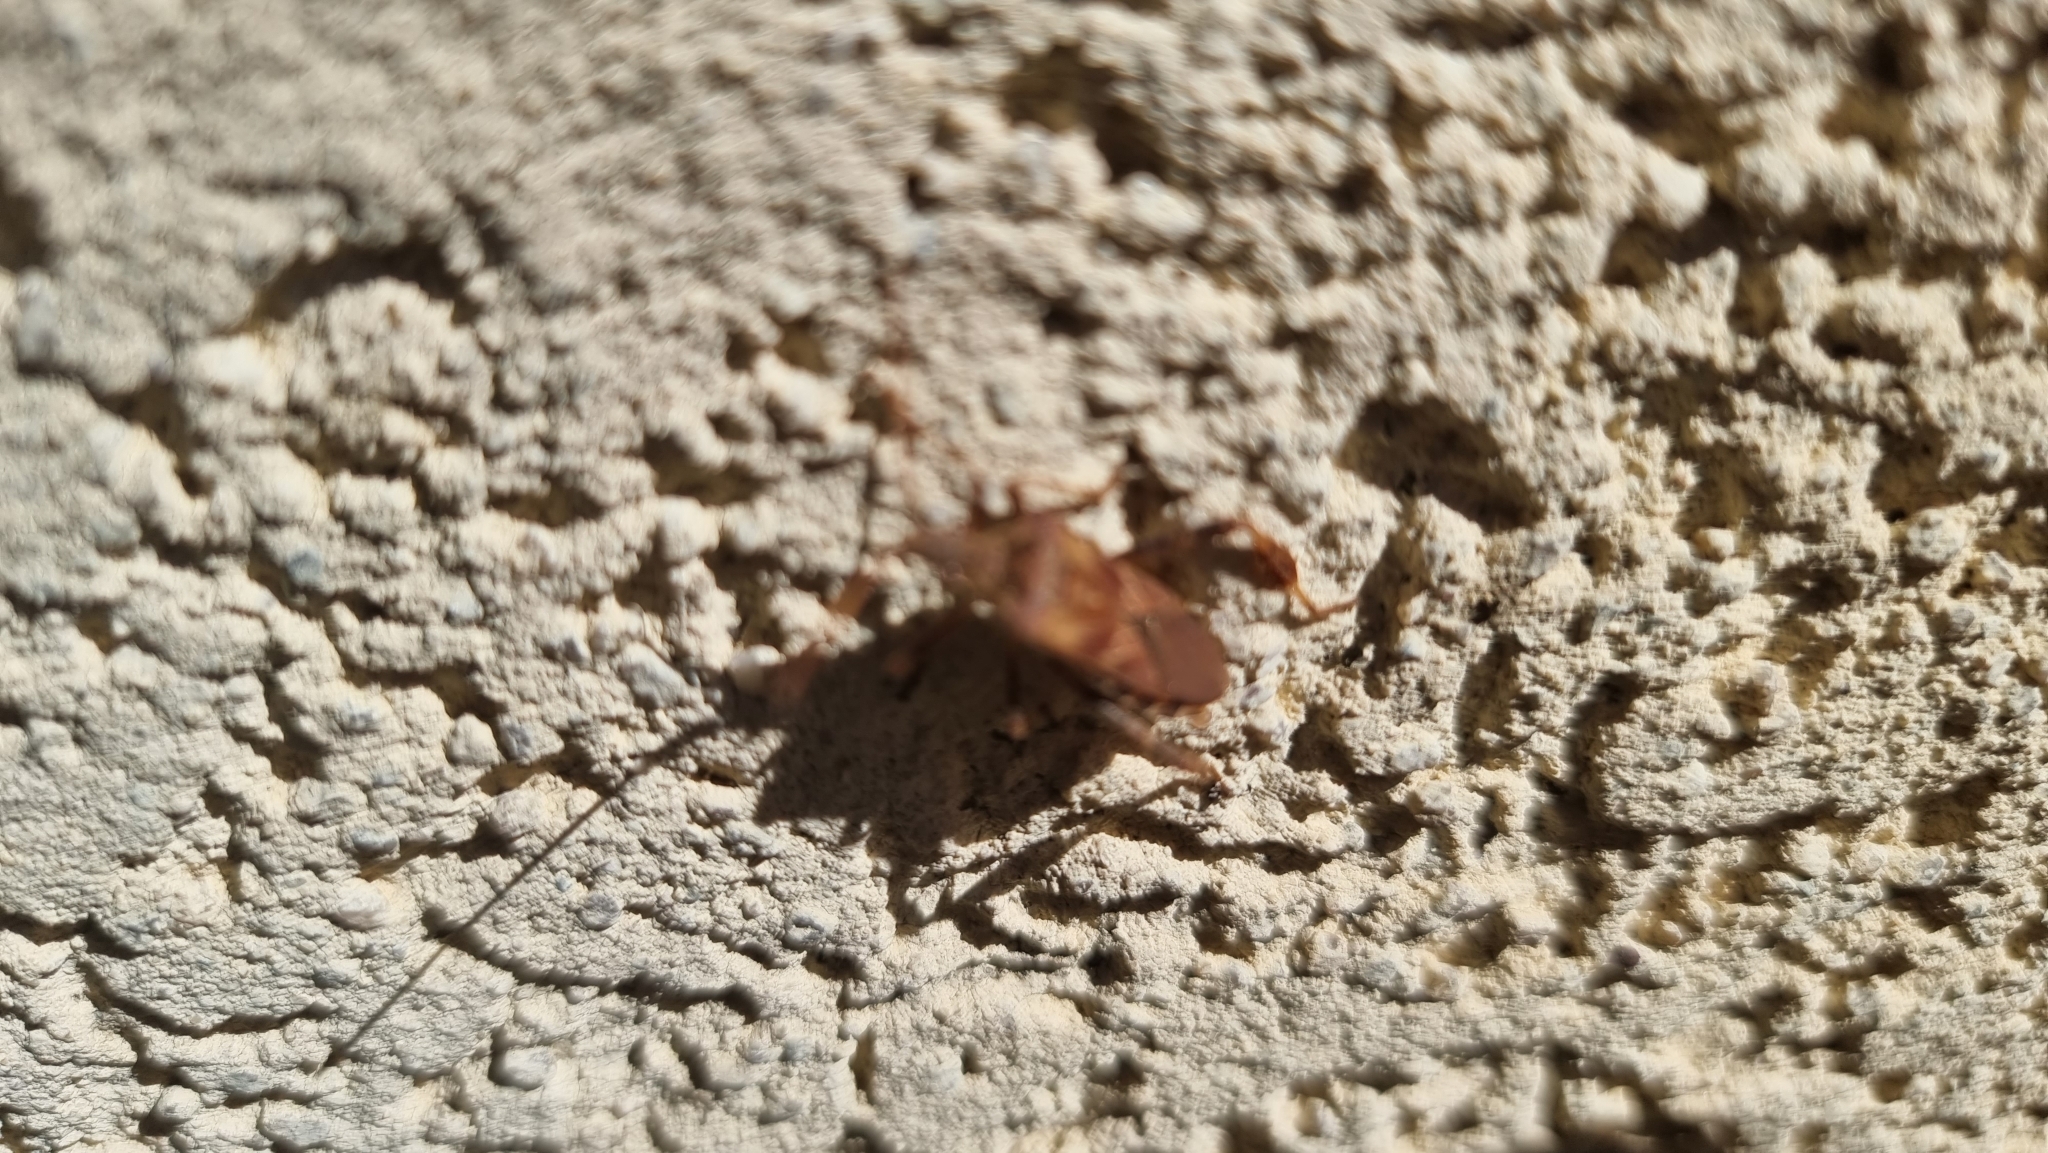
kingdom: Animalia
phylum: Arthropoda
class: Insecta
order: Hemiptera
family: Coreidae
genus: Leptoglossus
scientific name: Leptoglossus occidentalis
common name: Western conifer-seed bug
